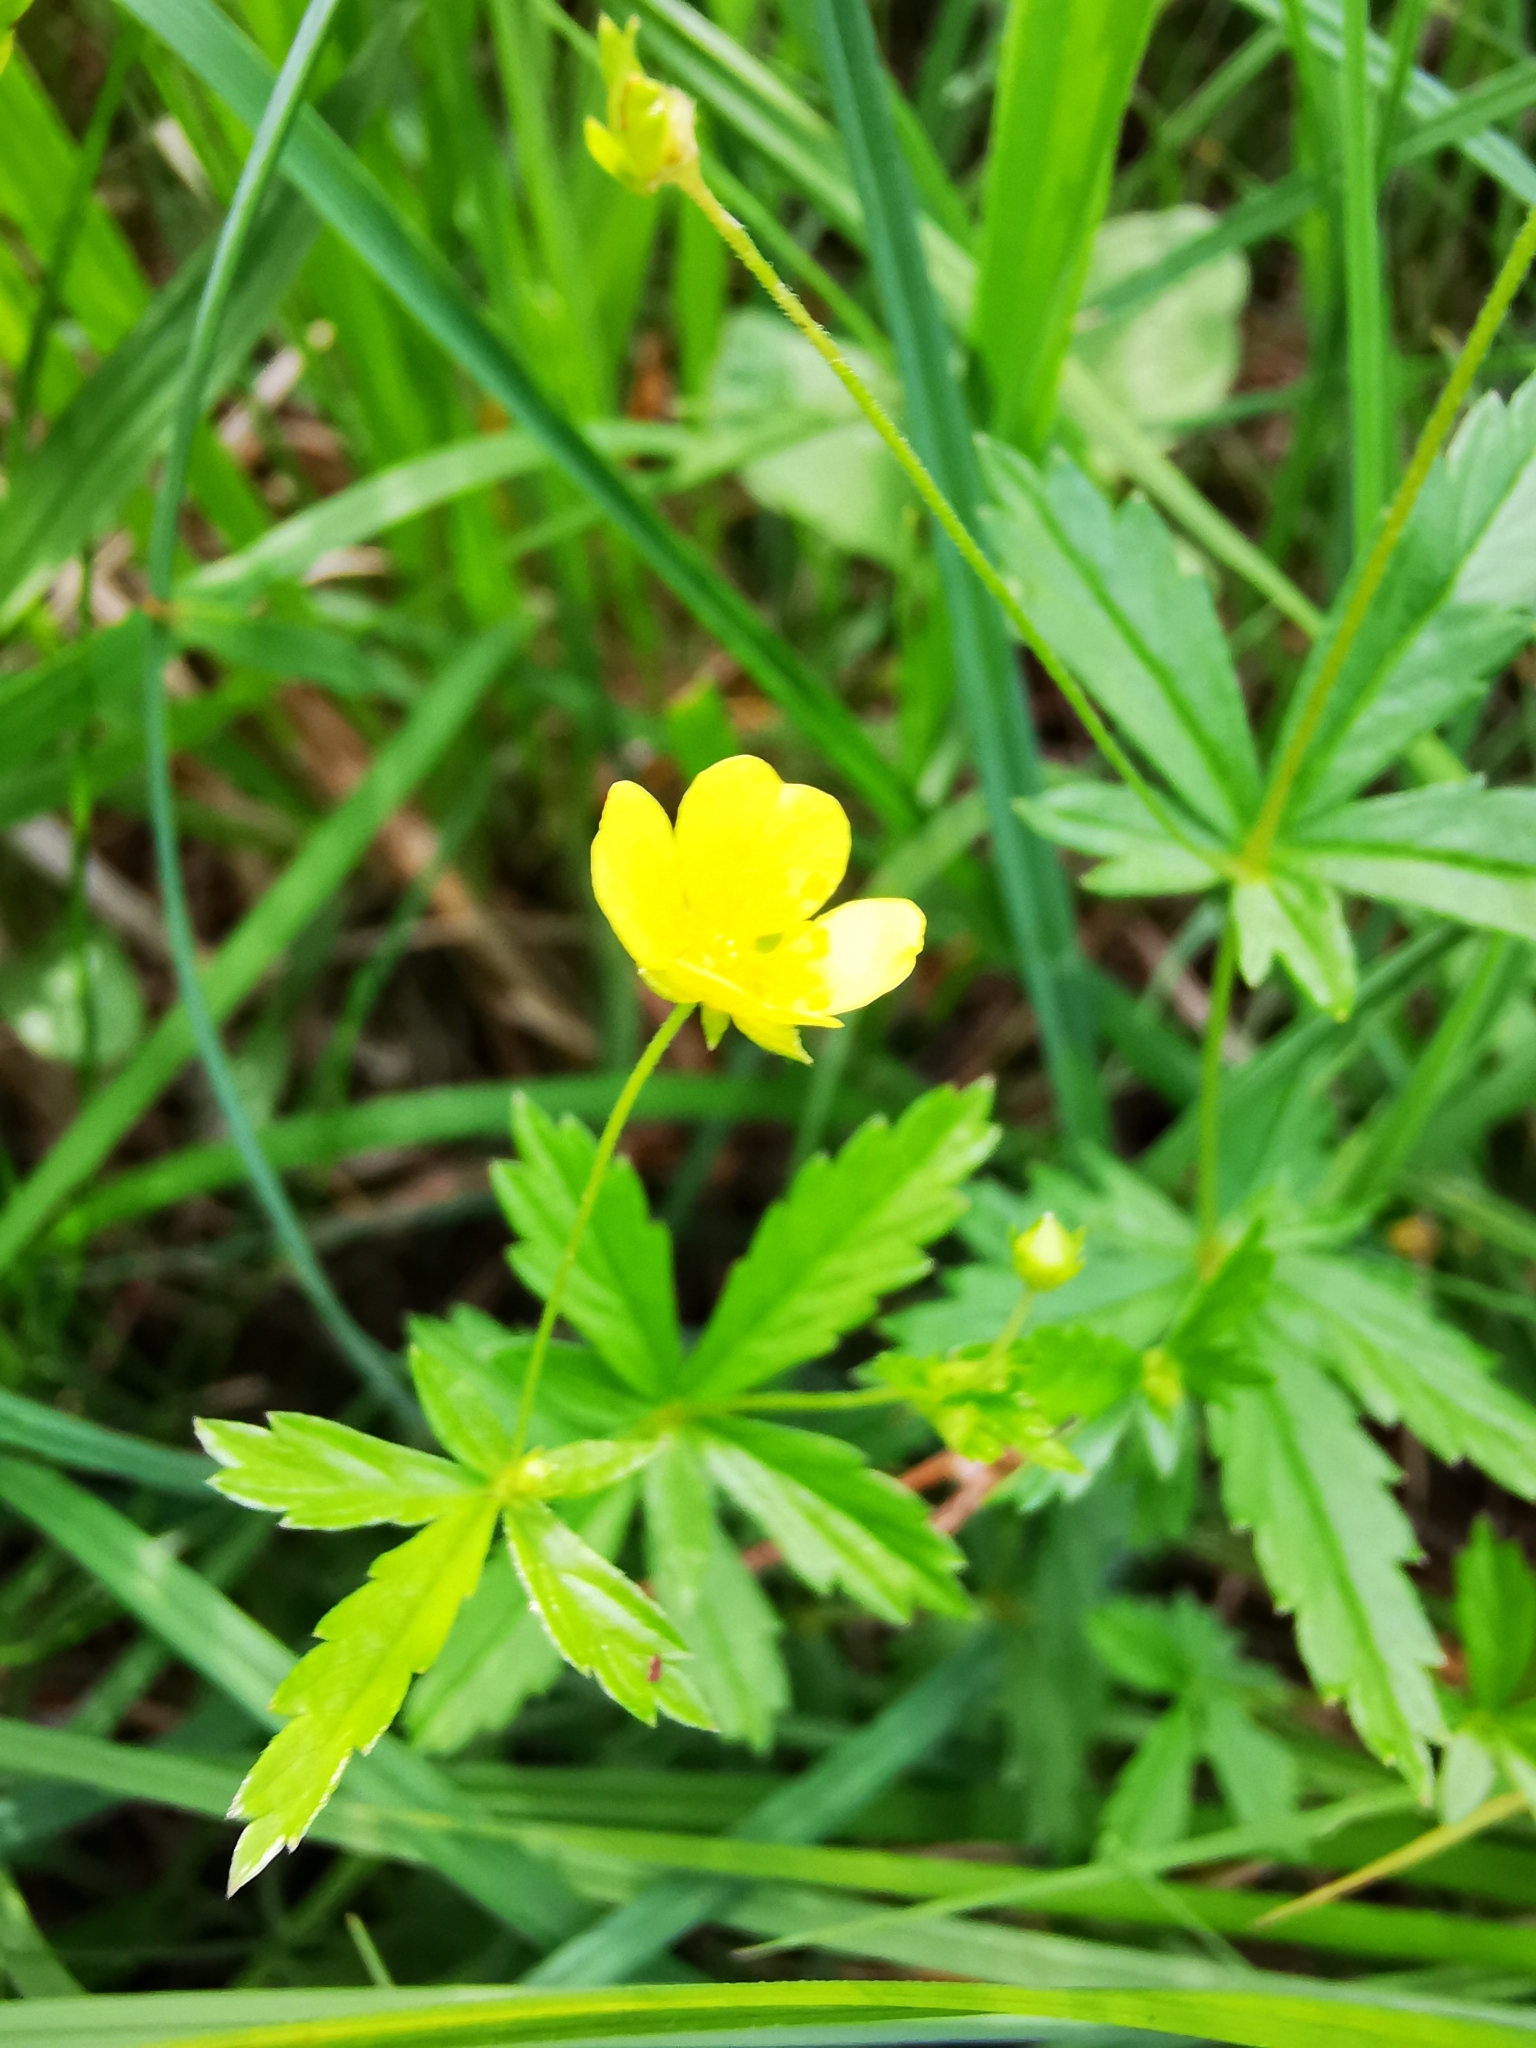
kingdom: Plantae
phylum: Tracheophyta
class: Magnoliopsida
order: Rosales
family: Rosaceae
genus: Potentilla
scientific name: Potentilla erecta
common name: Tormentil
